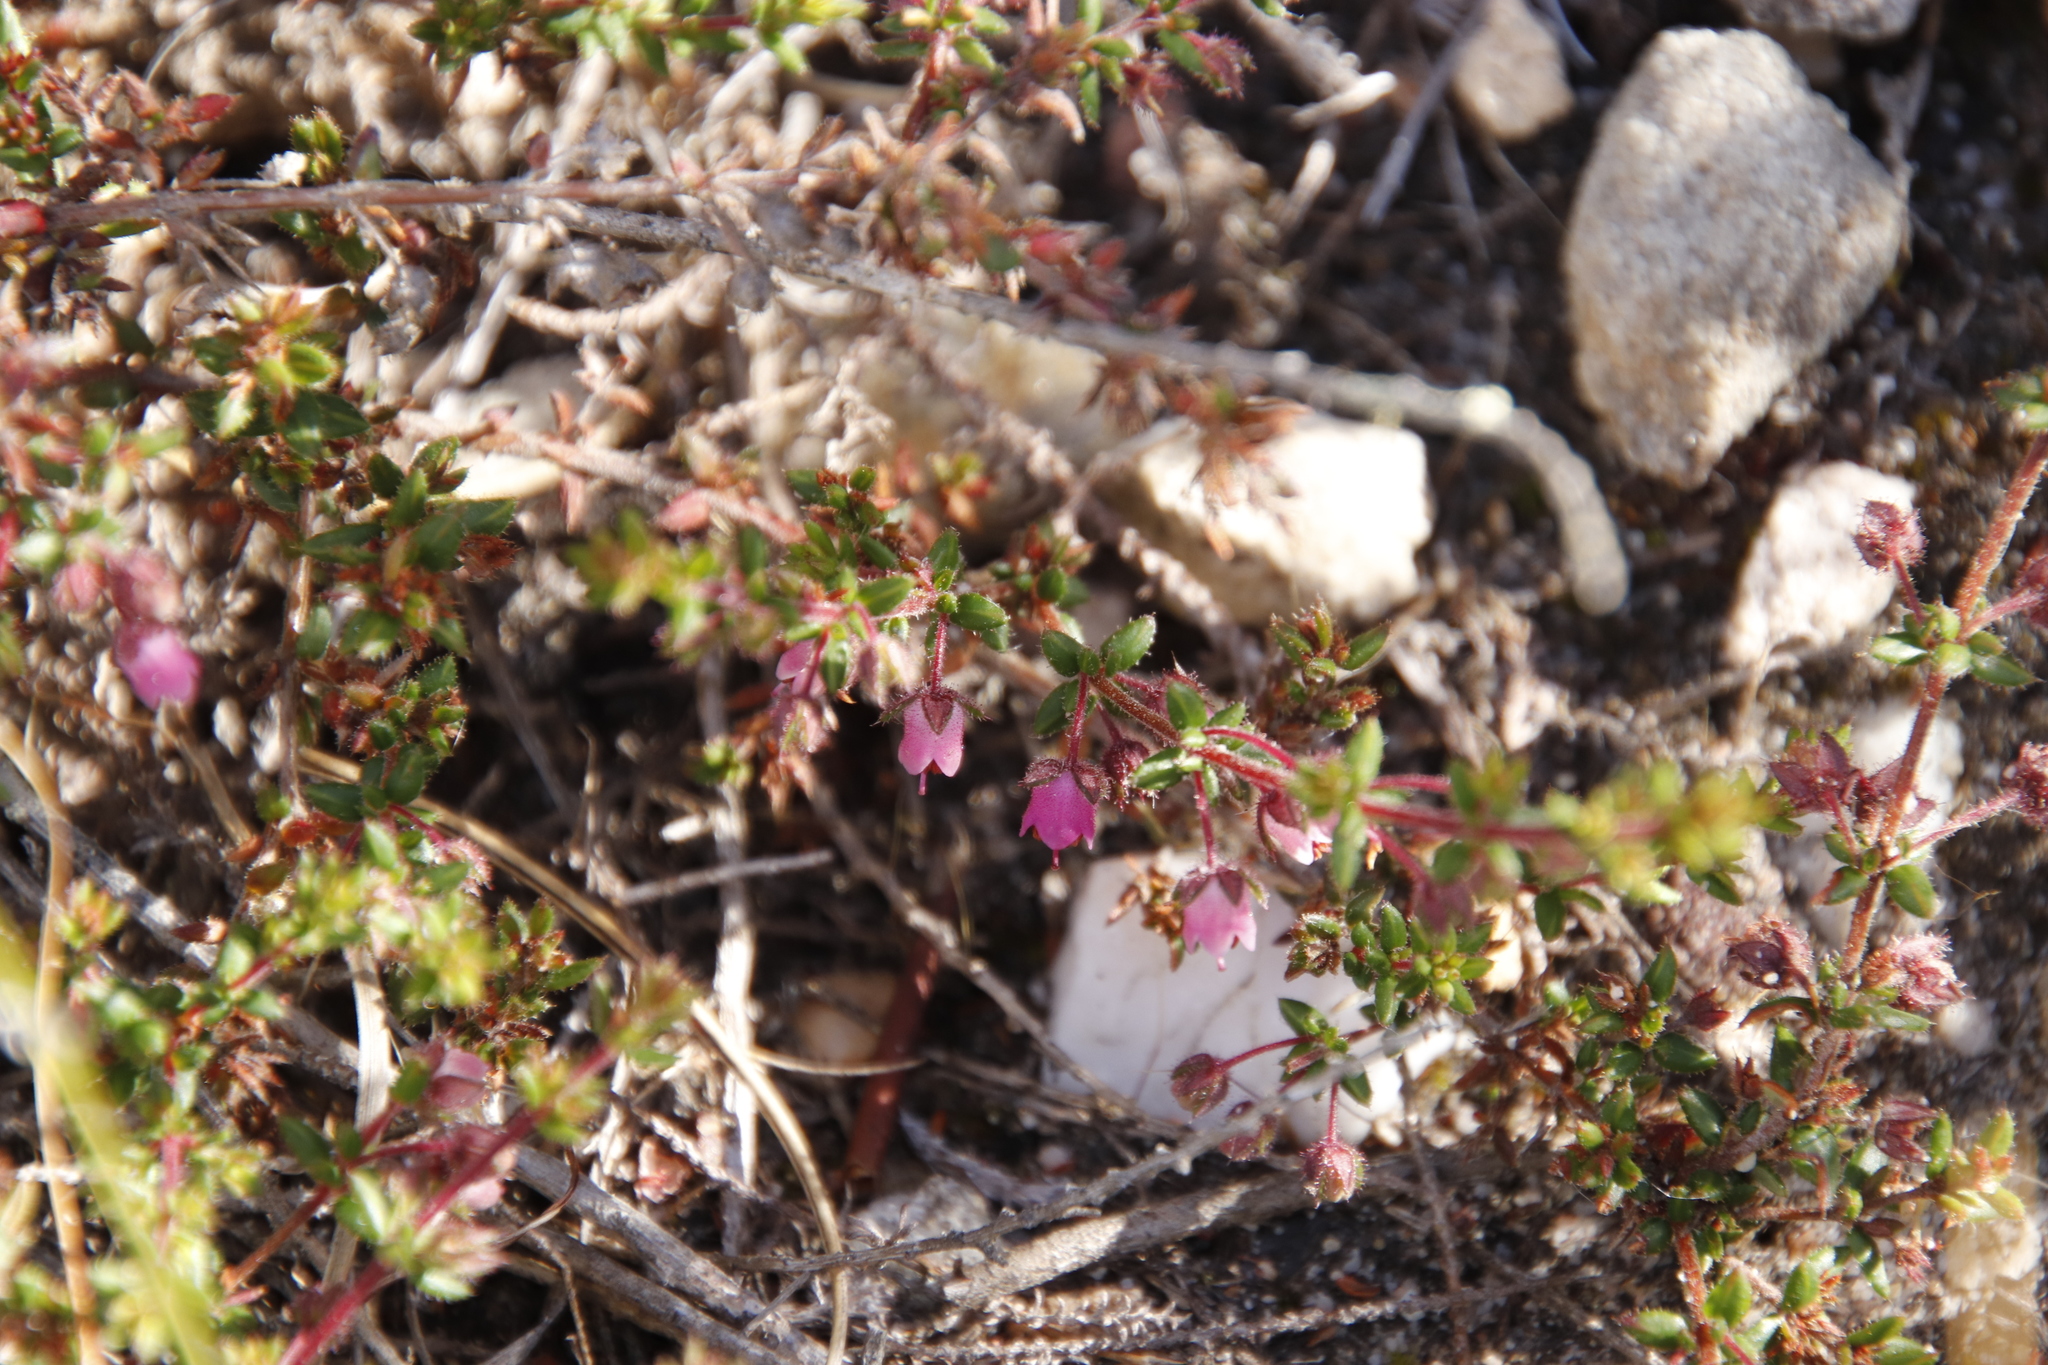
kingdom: Plantae
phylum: Tracheophyta
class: Magnoliopsida
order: Ericales
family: Ericaceae
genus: Erica
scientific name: Erica planifolia
